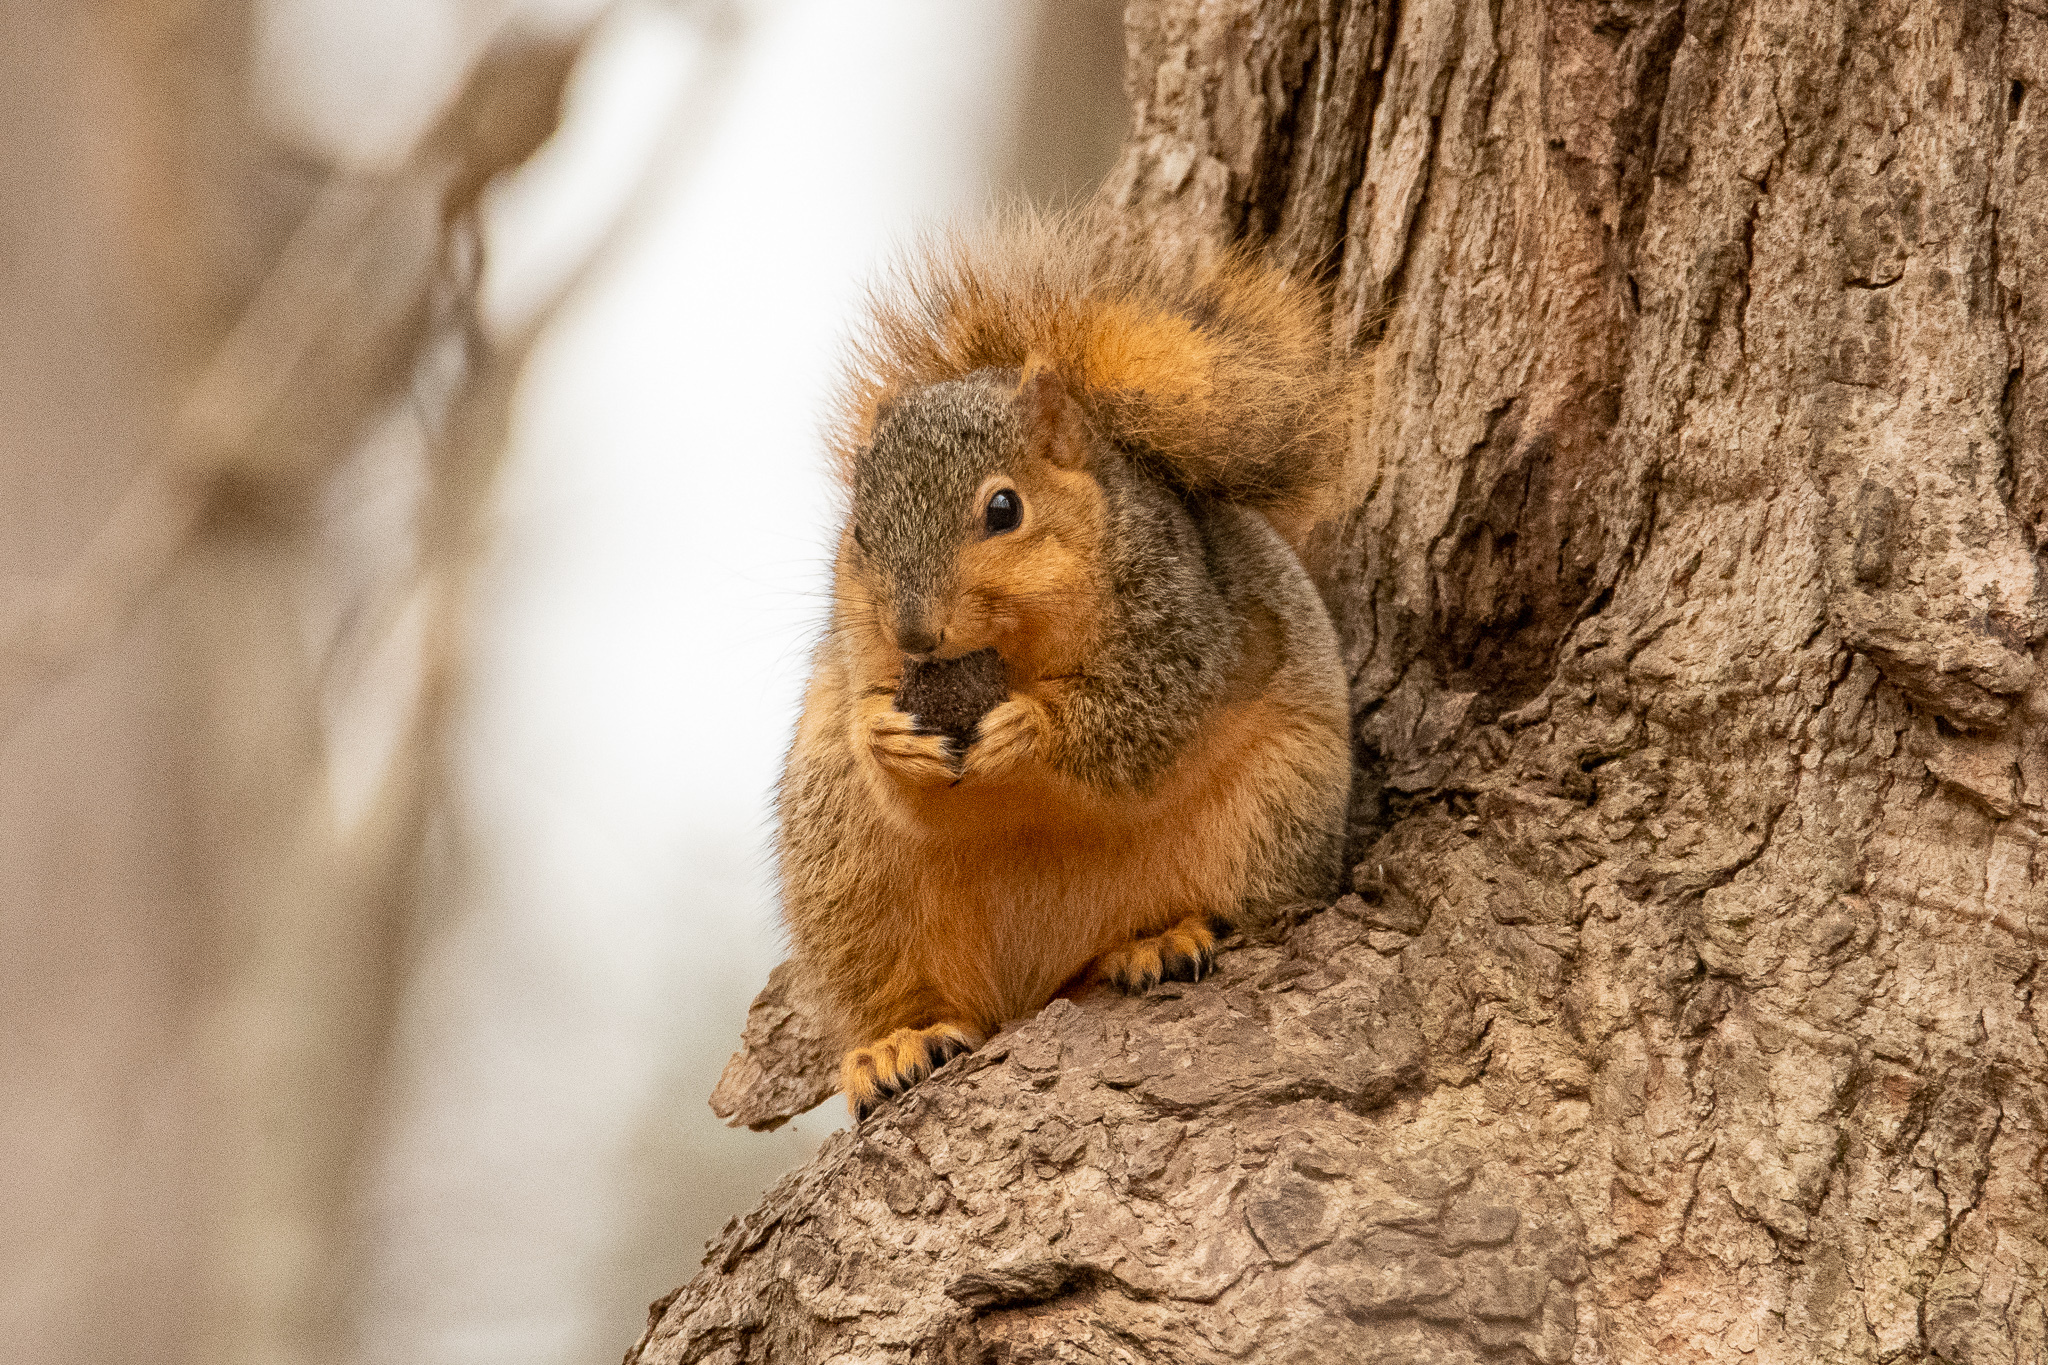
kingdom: Animalia
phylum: Chordata
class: Mammalia
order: Rodentia
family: Sciuridae
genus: Sciurus
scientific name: Sciurus niger
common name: Fox squirrel
